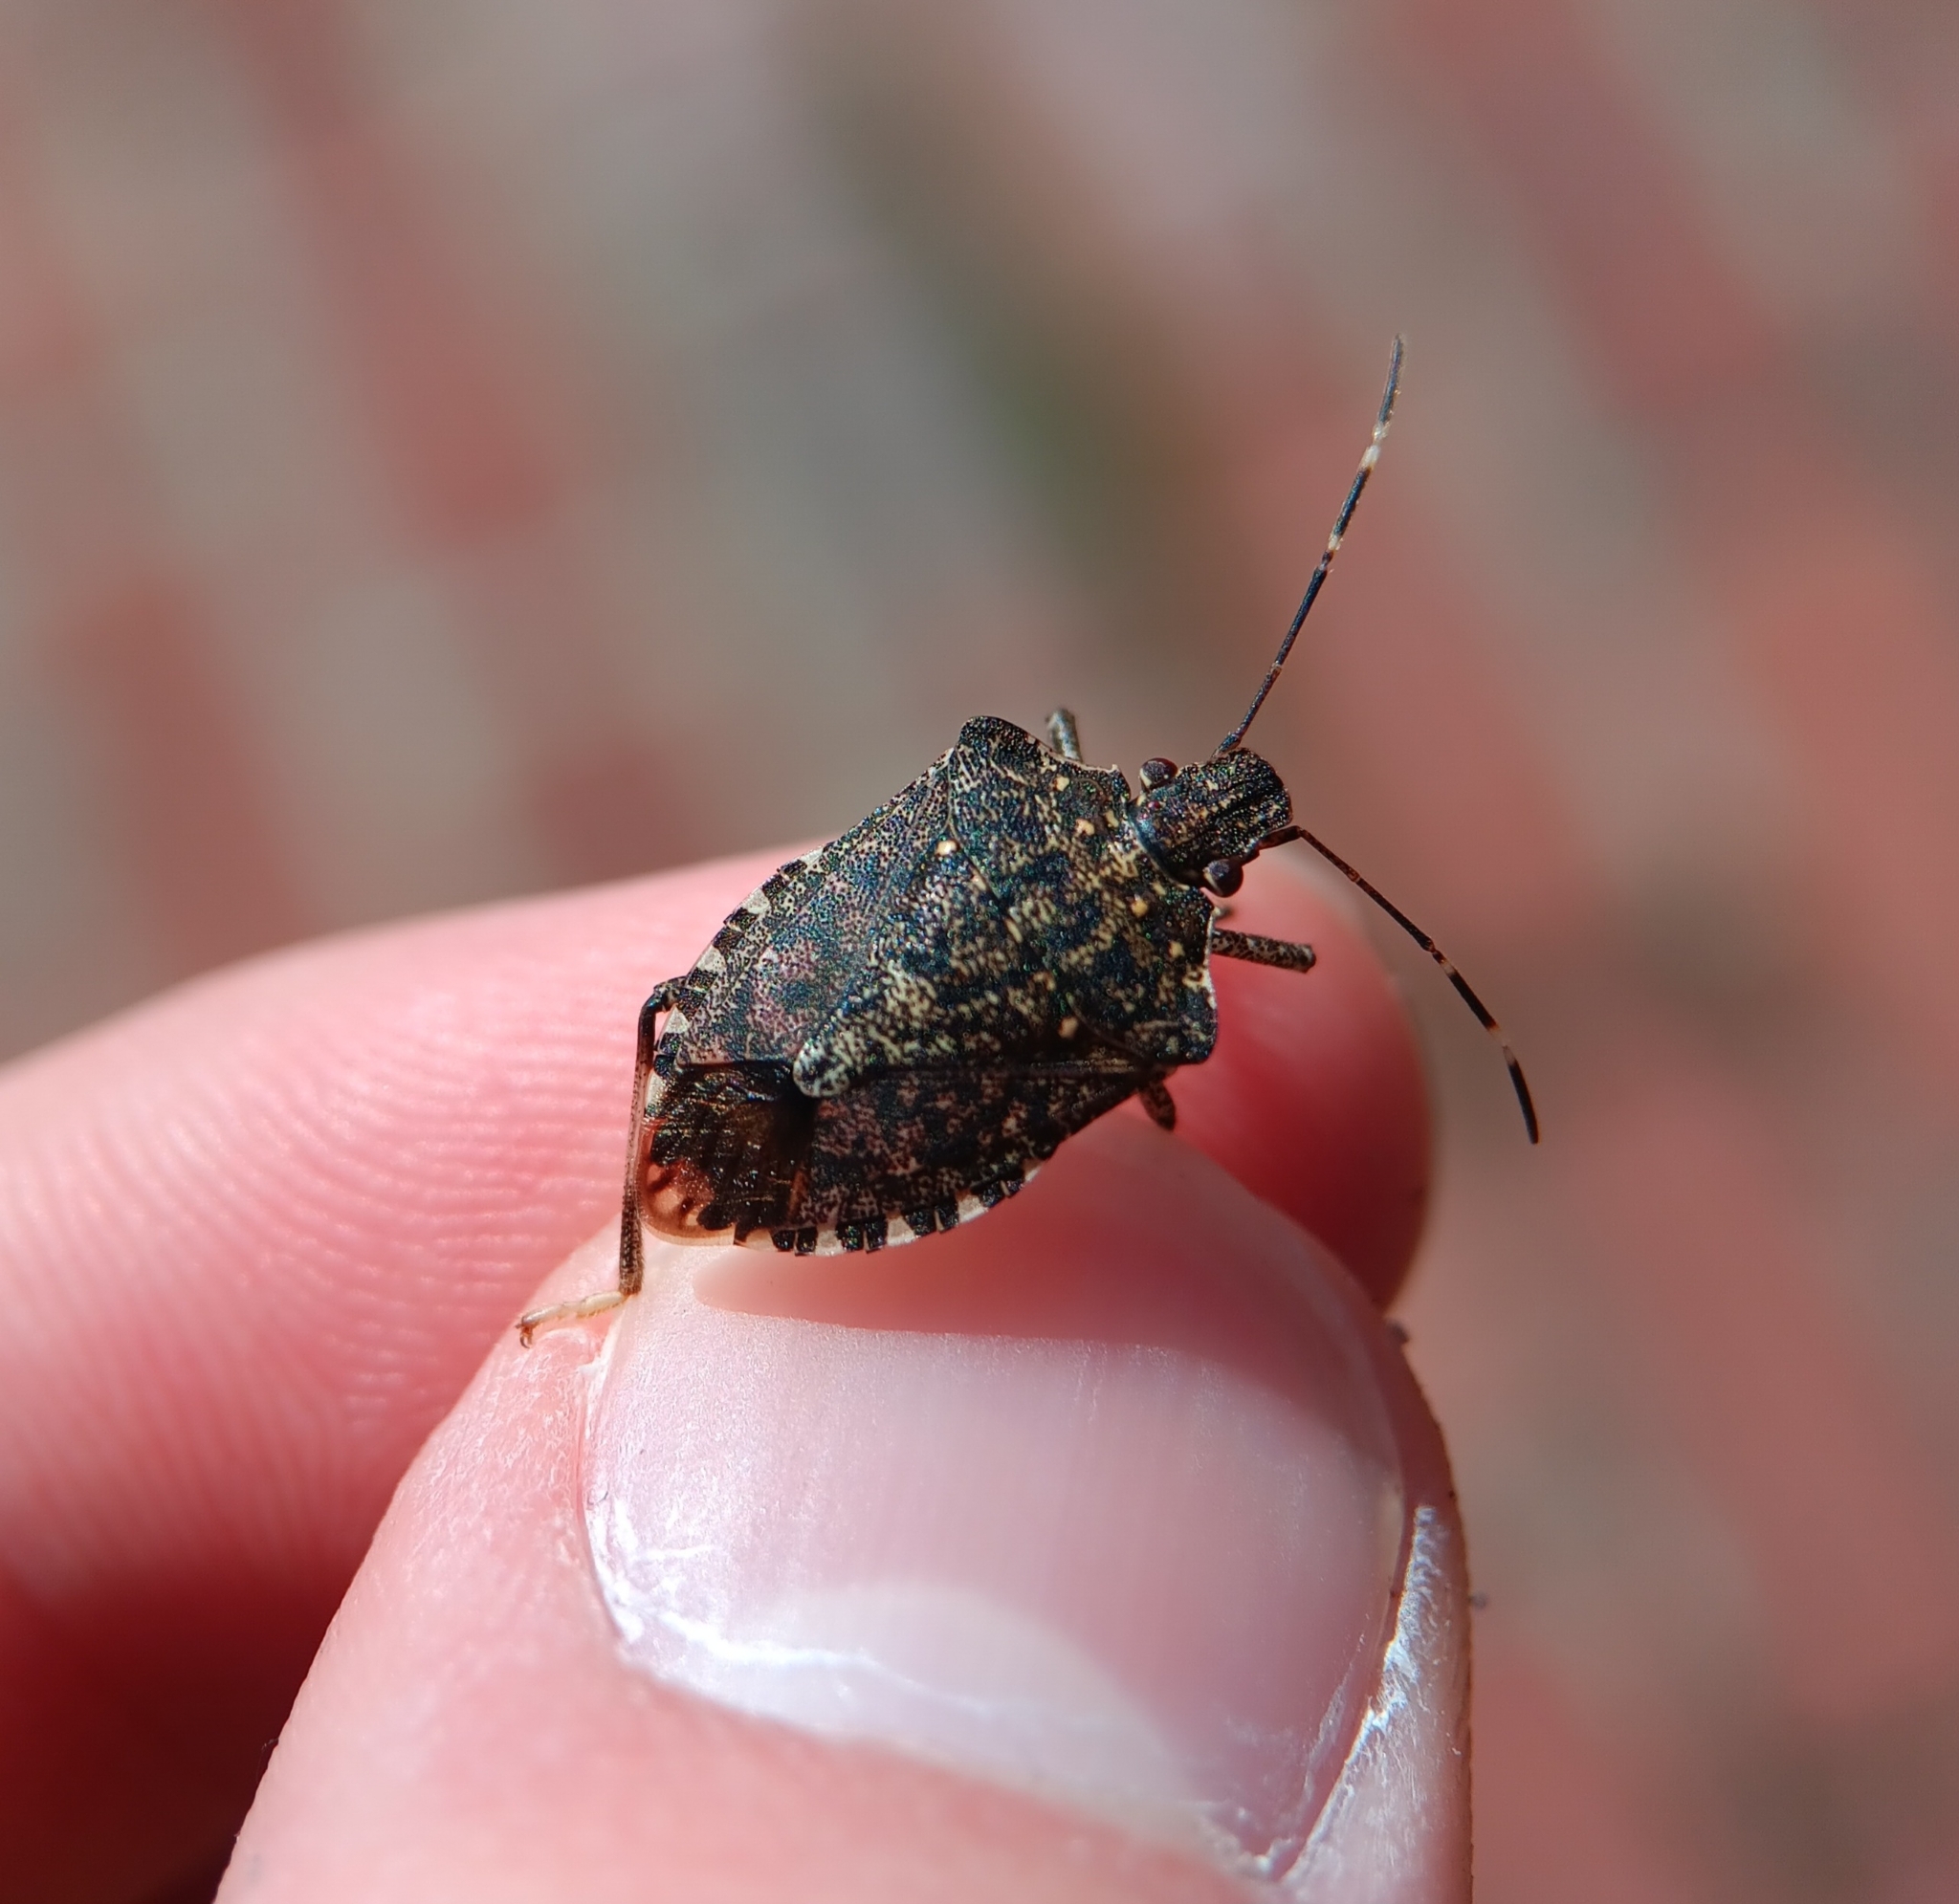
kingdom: Animalia
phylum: Arthropoda
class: Insecta
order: Hemiptera
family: Pentatomidae
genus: Halyomorpha
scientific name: Halyomorpha halys
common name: Brown marmorated stink bug
